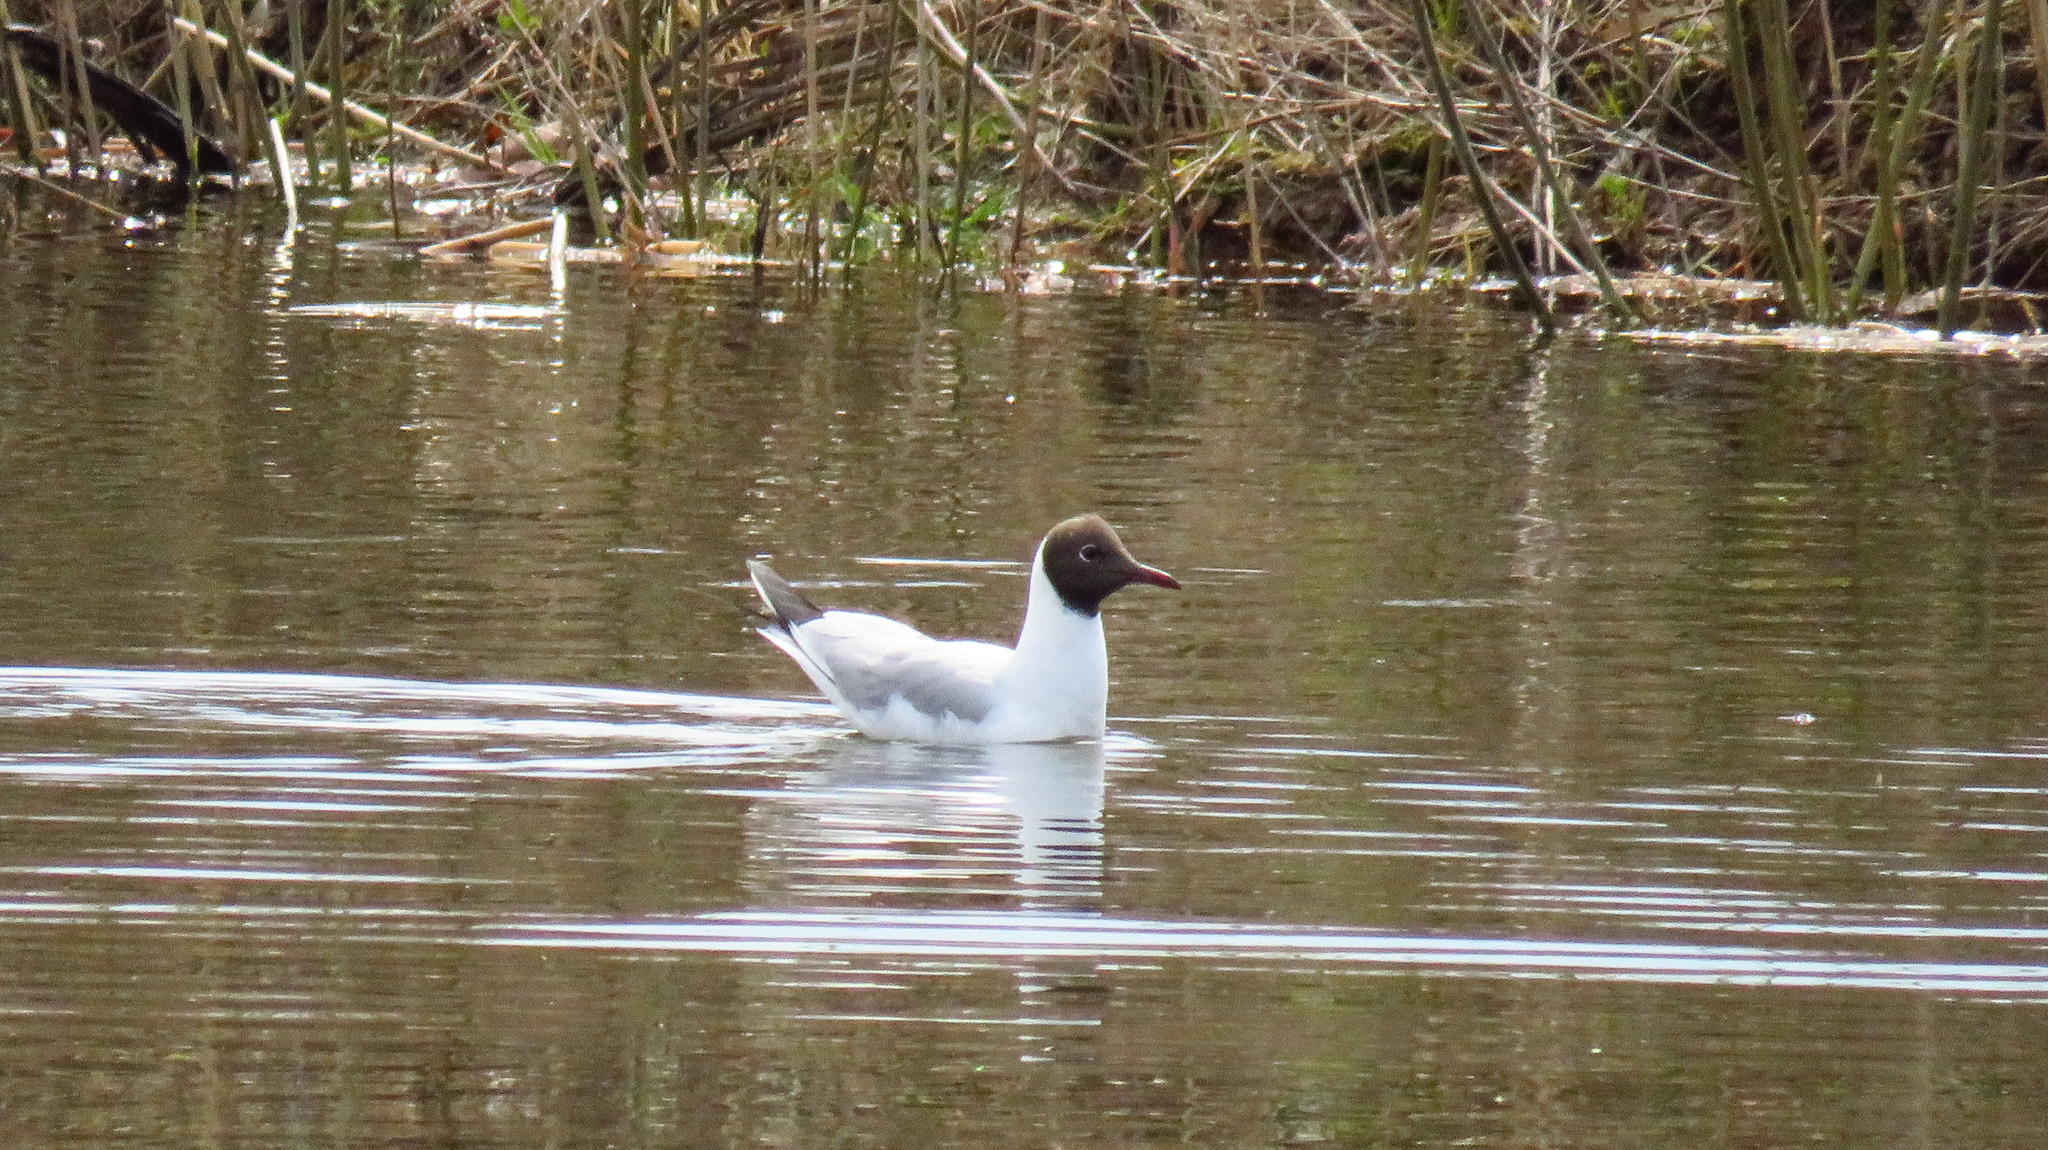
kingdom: Animalia
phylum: Chordata
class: Aves
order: Charadriiformes
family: Laridae
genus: Chroicocephalus
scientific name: Chroicocephalus ridibundus
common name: Black-headed gull
